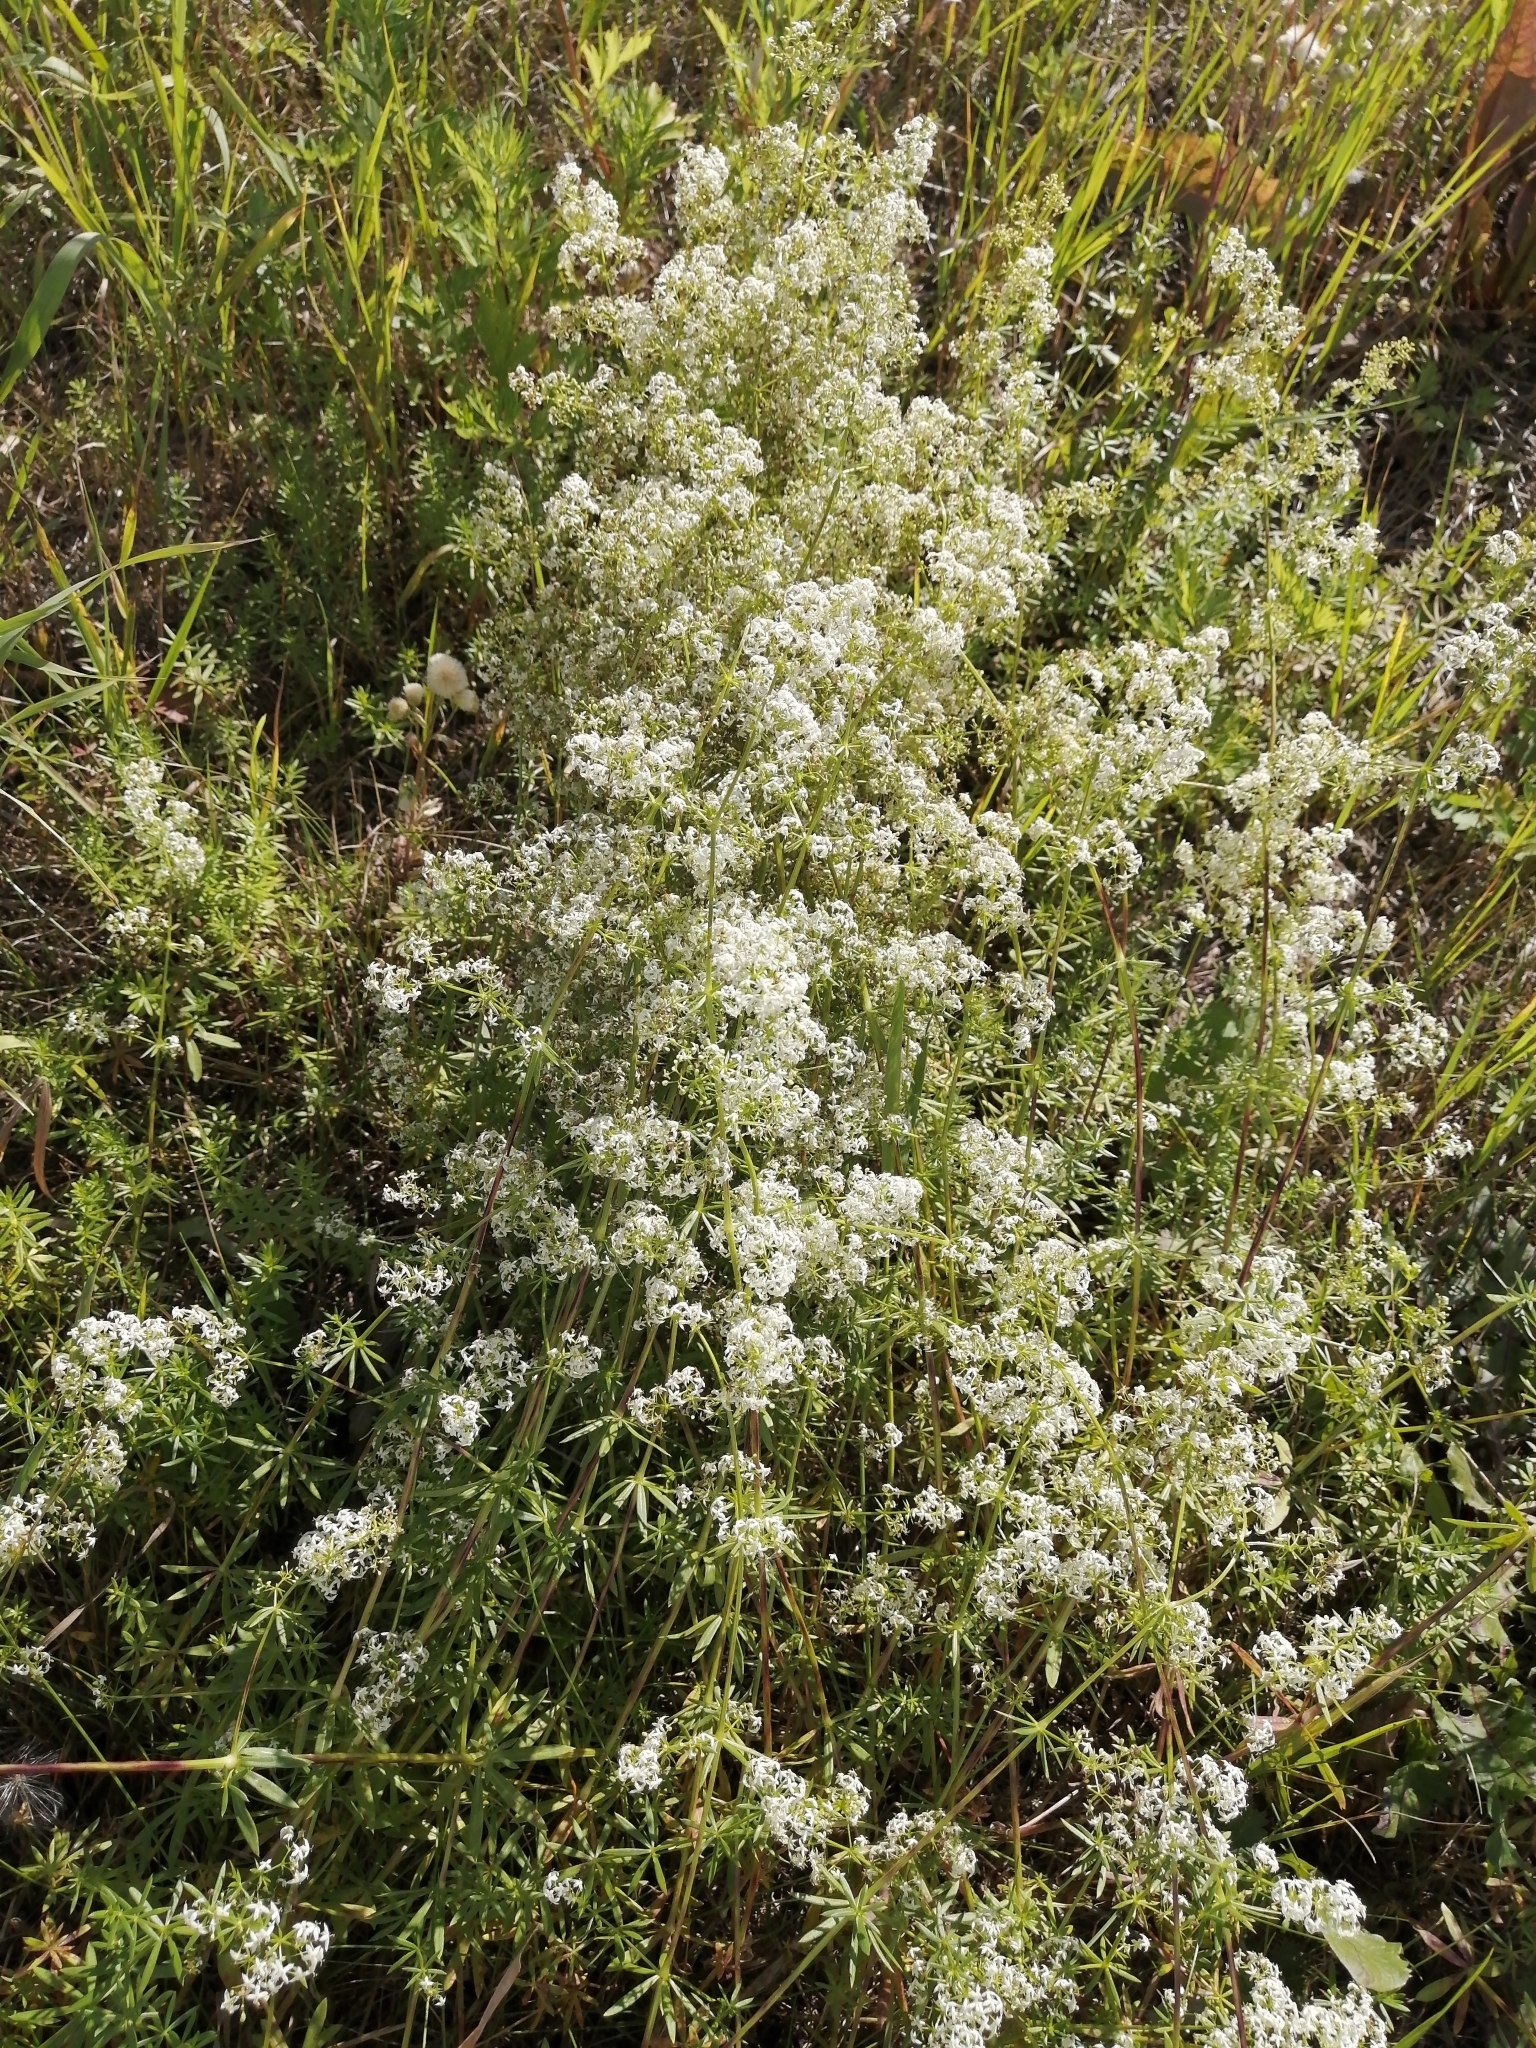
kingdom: Plantae
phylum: Tracheophyta
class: Magnoliopsida
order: Gentianales
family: Rubiaceae
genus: Galium
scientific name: Galium mollugo
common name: Hedge bedstraw
